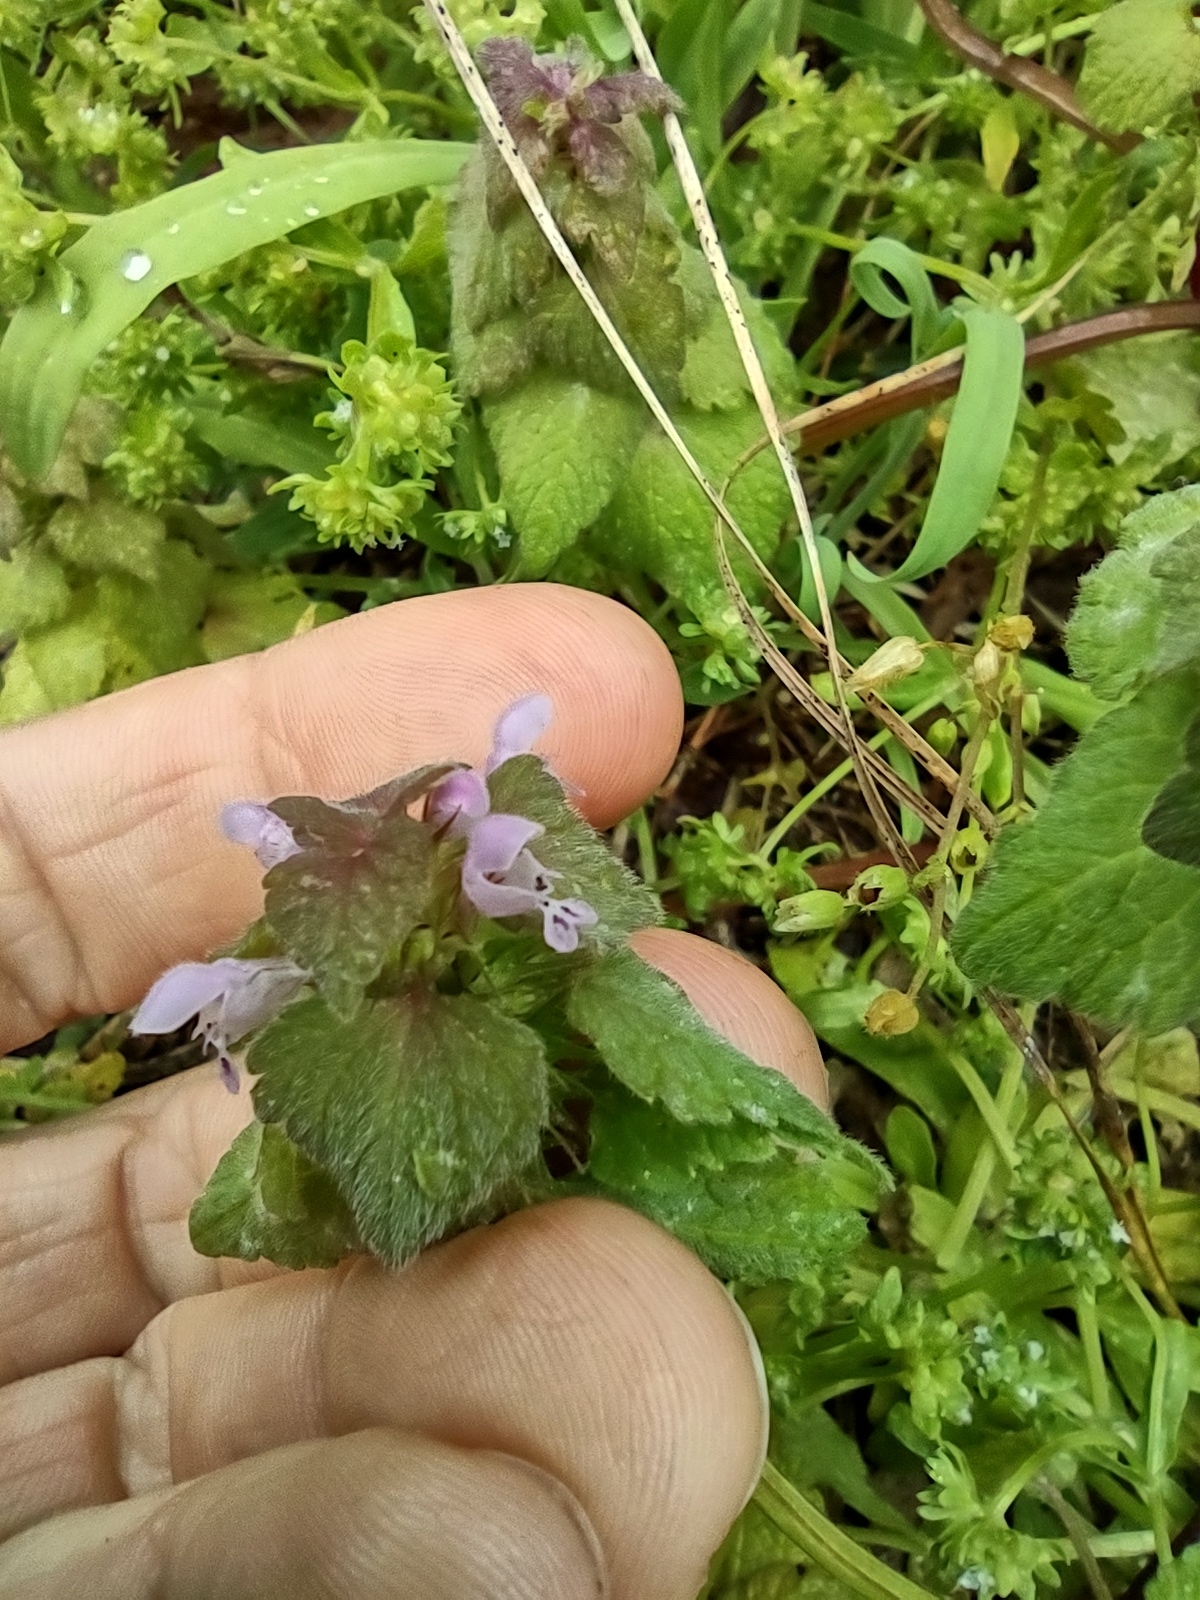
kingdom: Plantae
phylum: Tracheophyta
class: Magnoliopsida
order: Lamiales
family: Lamiaceae
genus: Lamium
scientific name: Lamium purpureum
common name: Red dead-nettle
